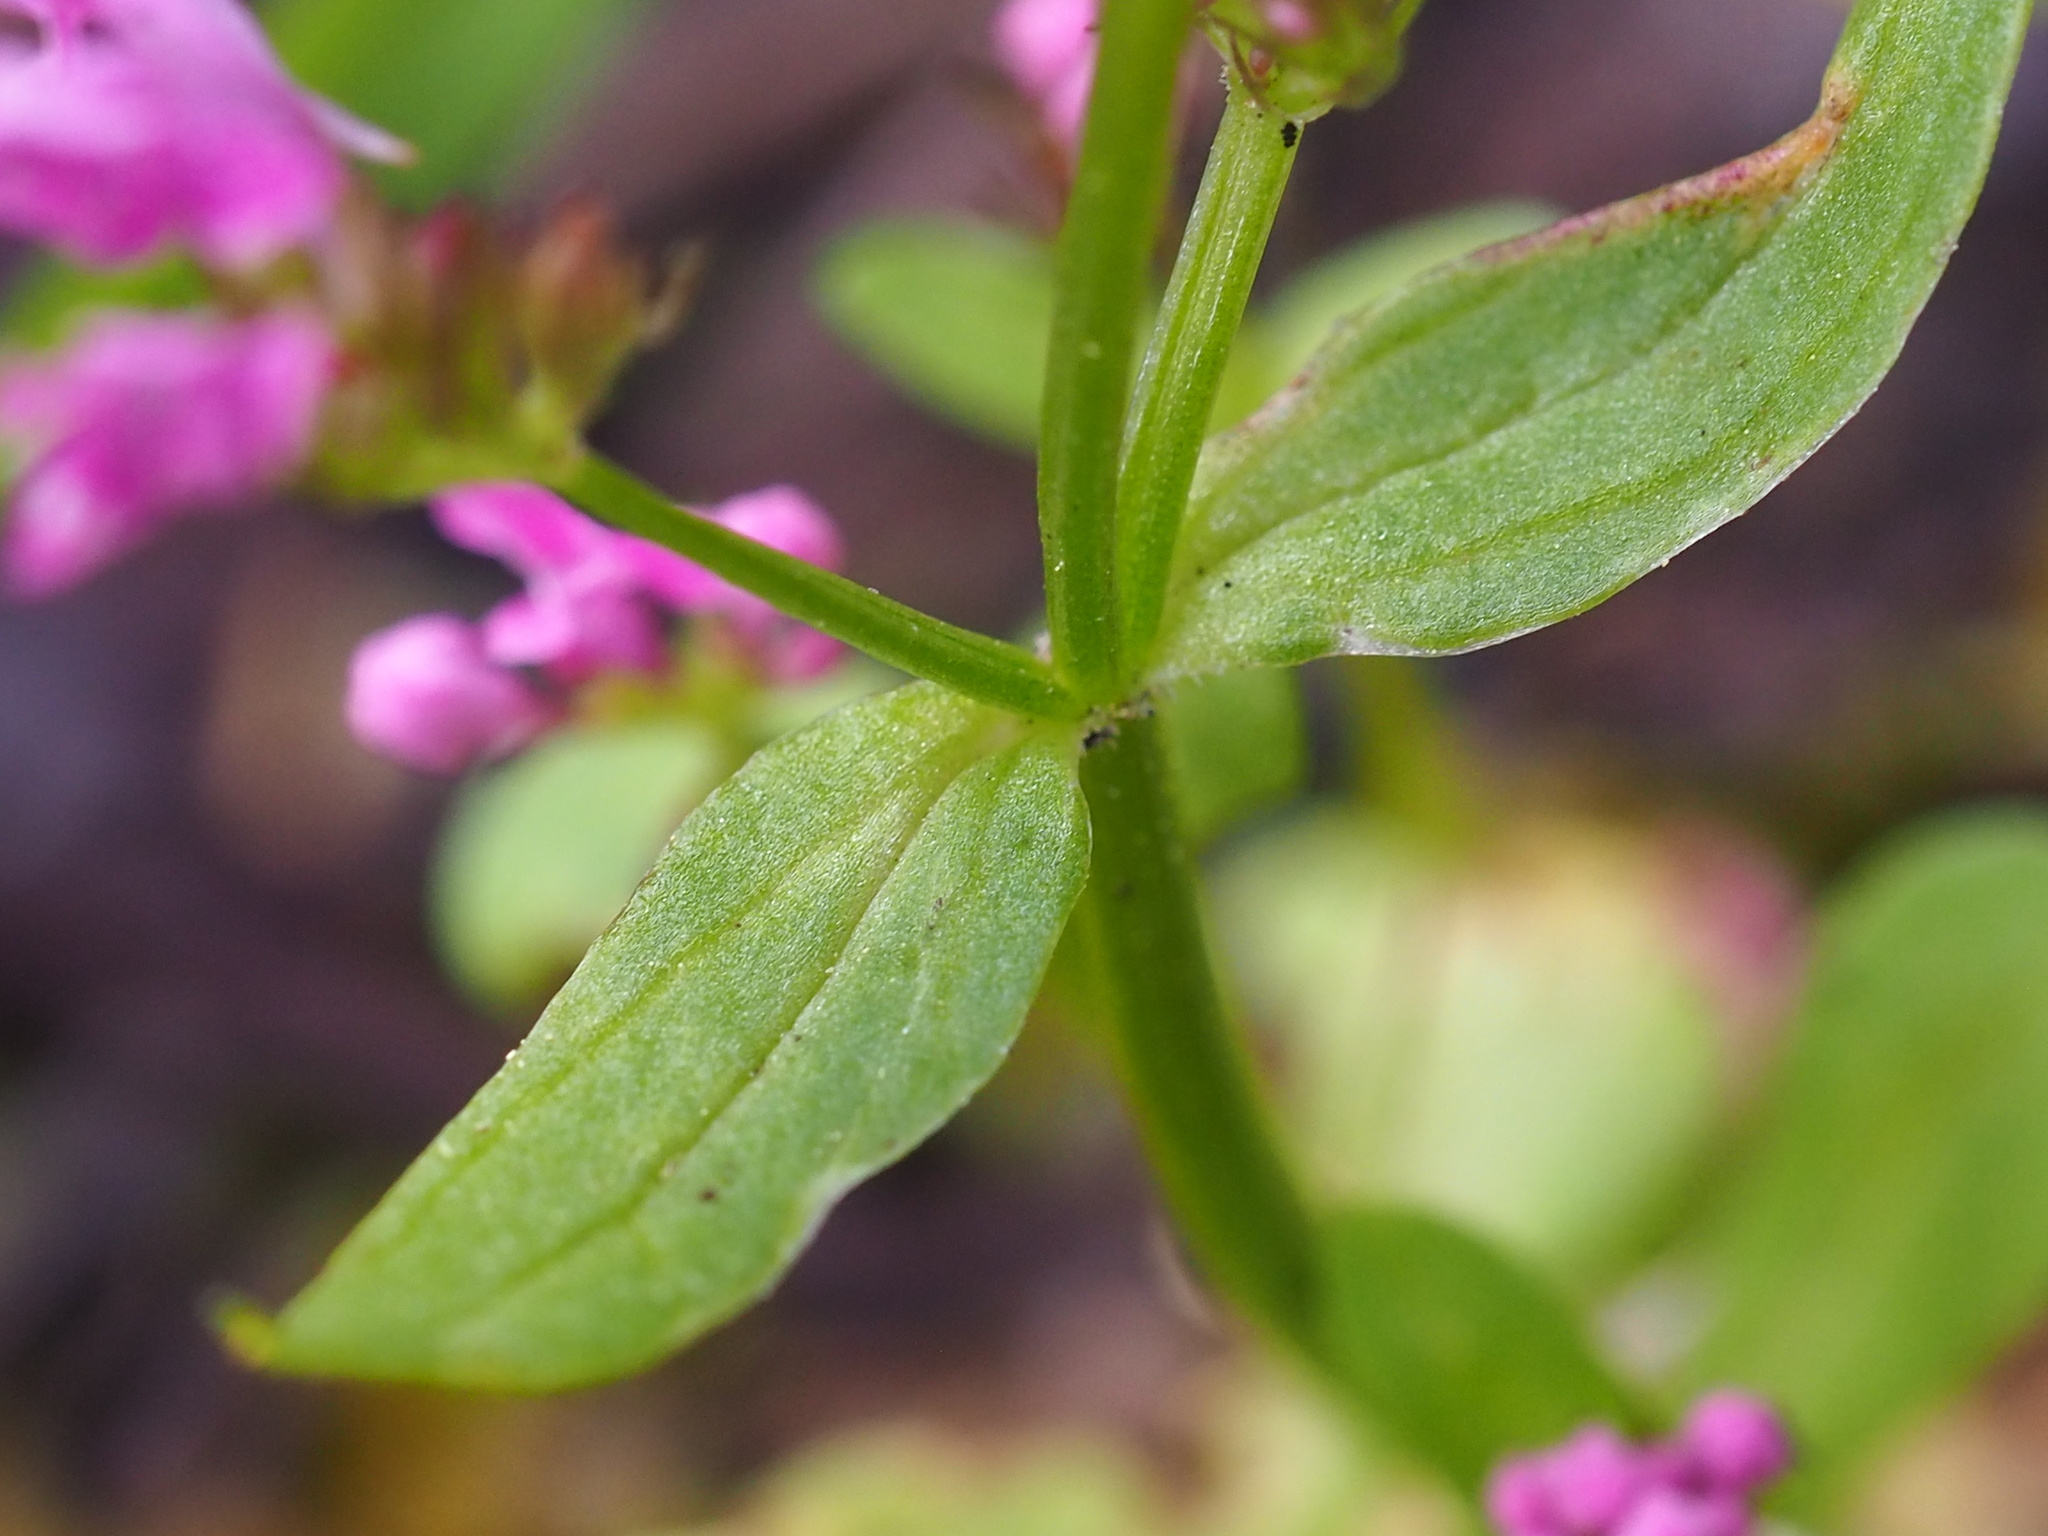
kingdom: Plantae
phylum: Tracheophyta
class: Magnoliopsida
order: Dipsacales
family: Caprifoliaceae
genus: Plectritis
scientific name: Plectritis congesta
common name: Pink plectritis
